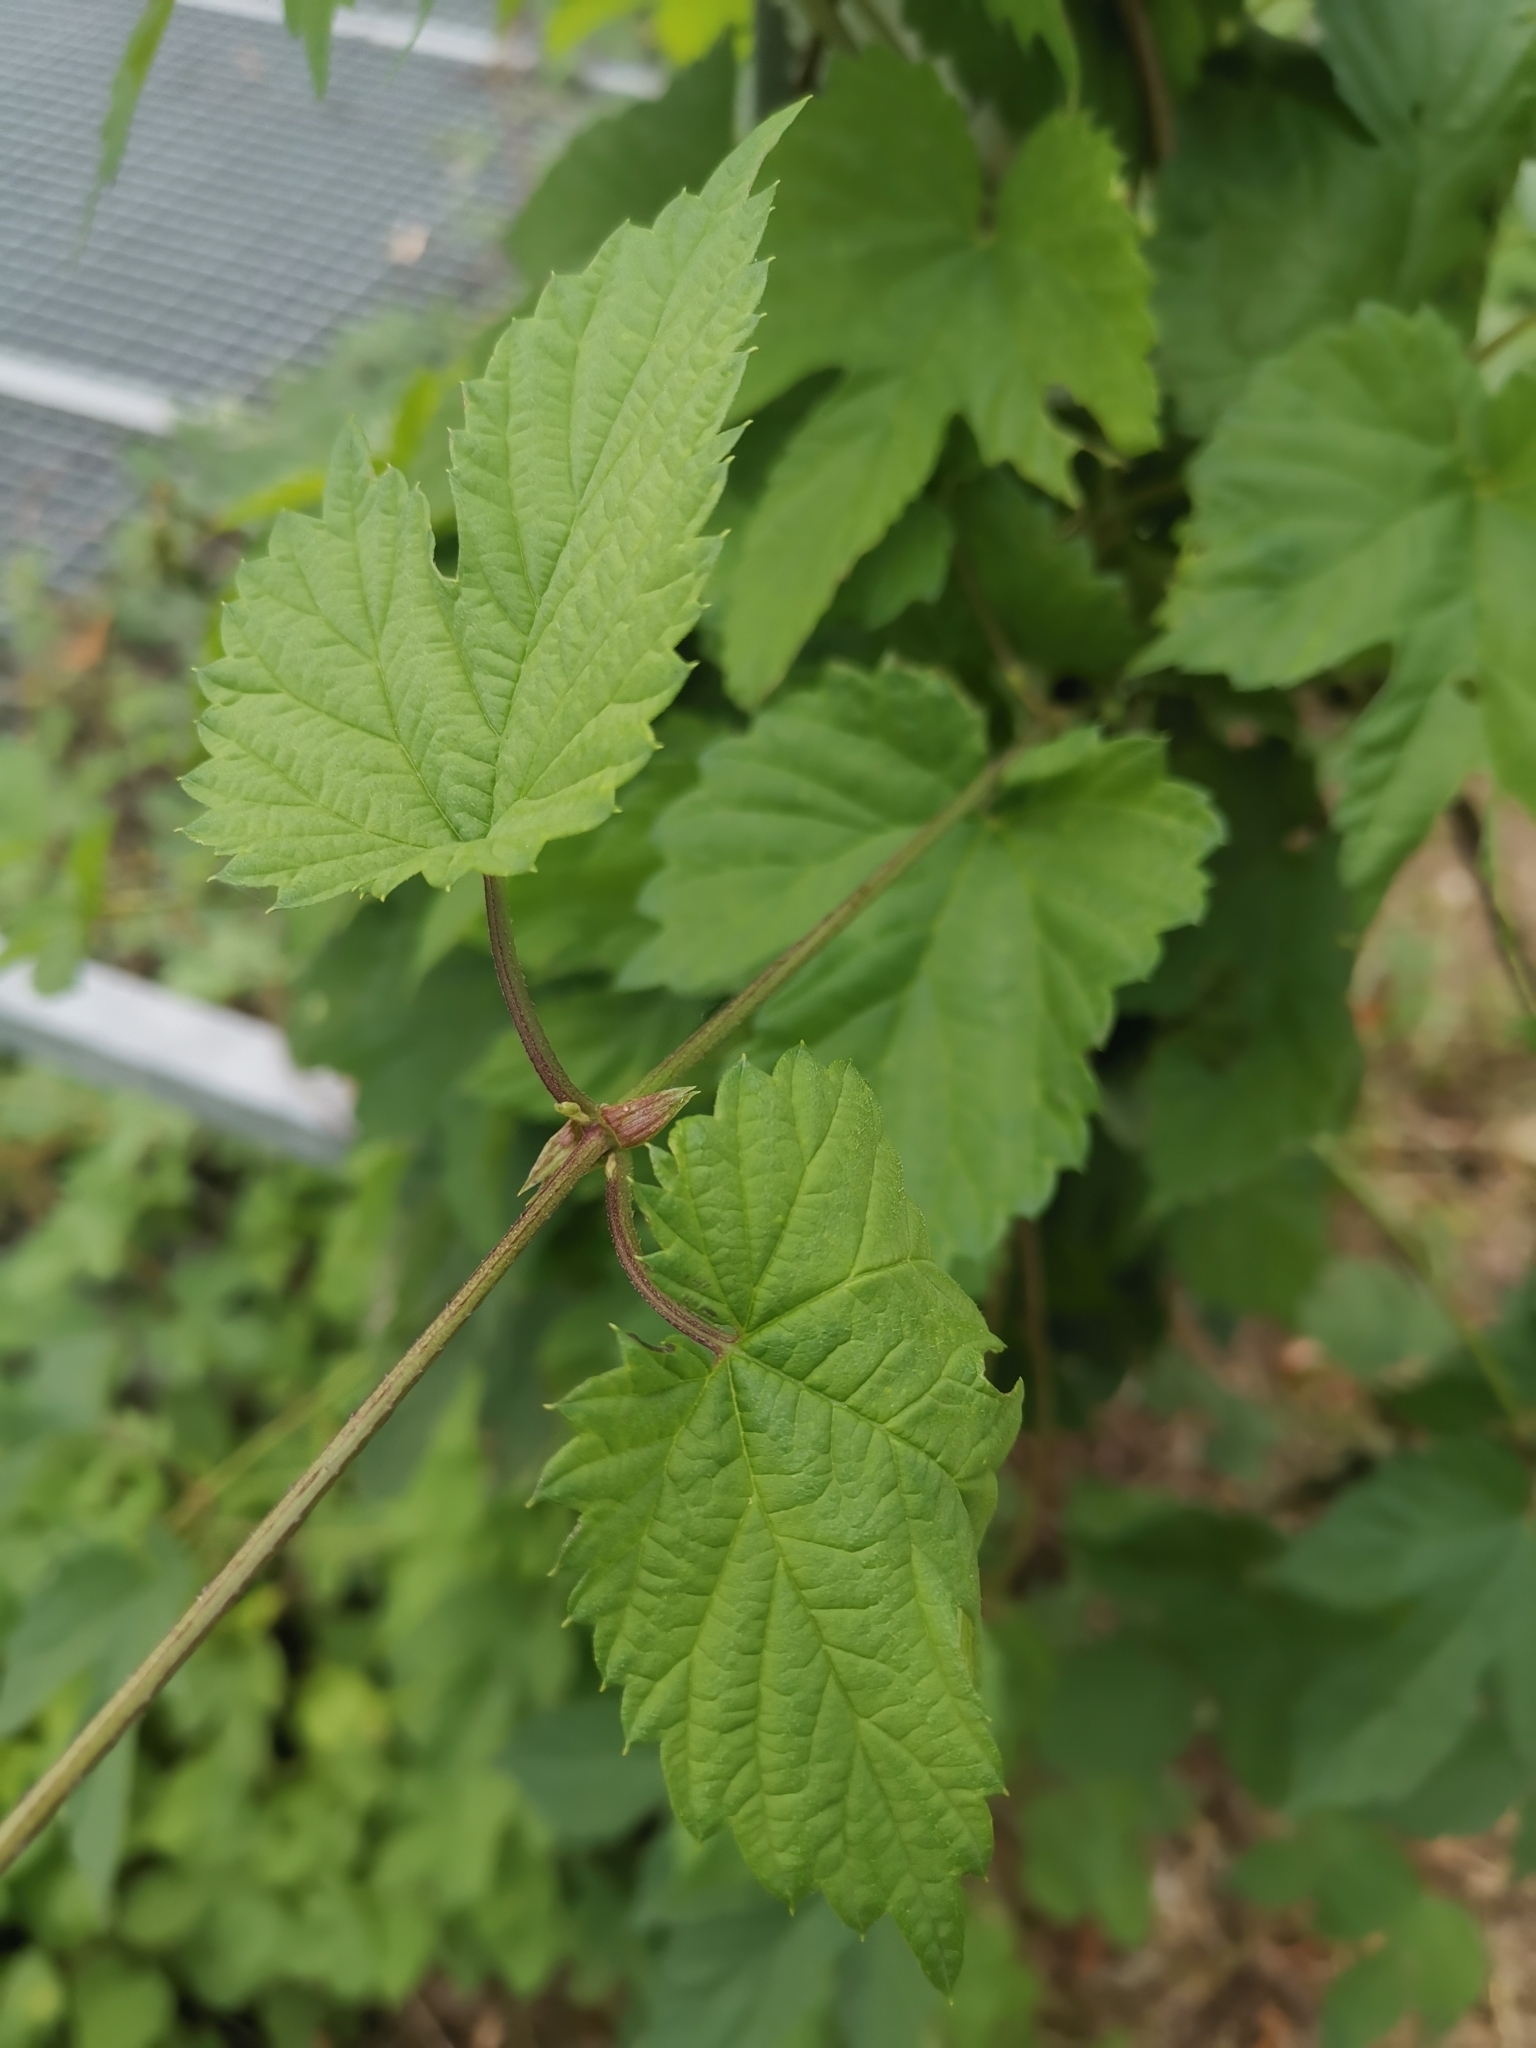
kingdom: Plantae
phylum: Tracheophyta
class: Magnoliopsida
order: Rosales
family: Cannabaceae
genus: Humulus
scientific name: Humulus lupulus
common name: Hop
